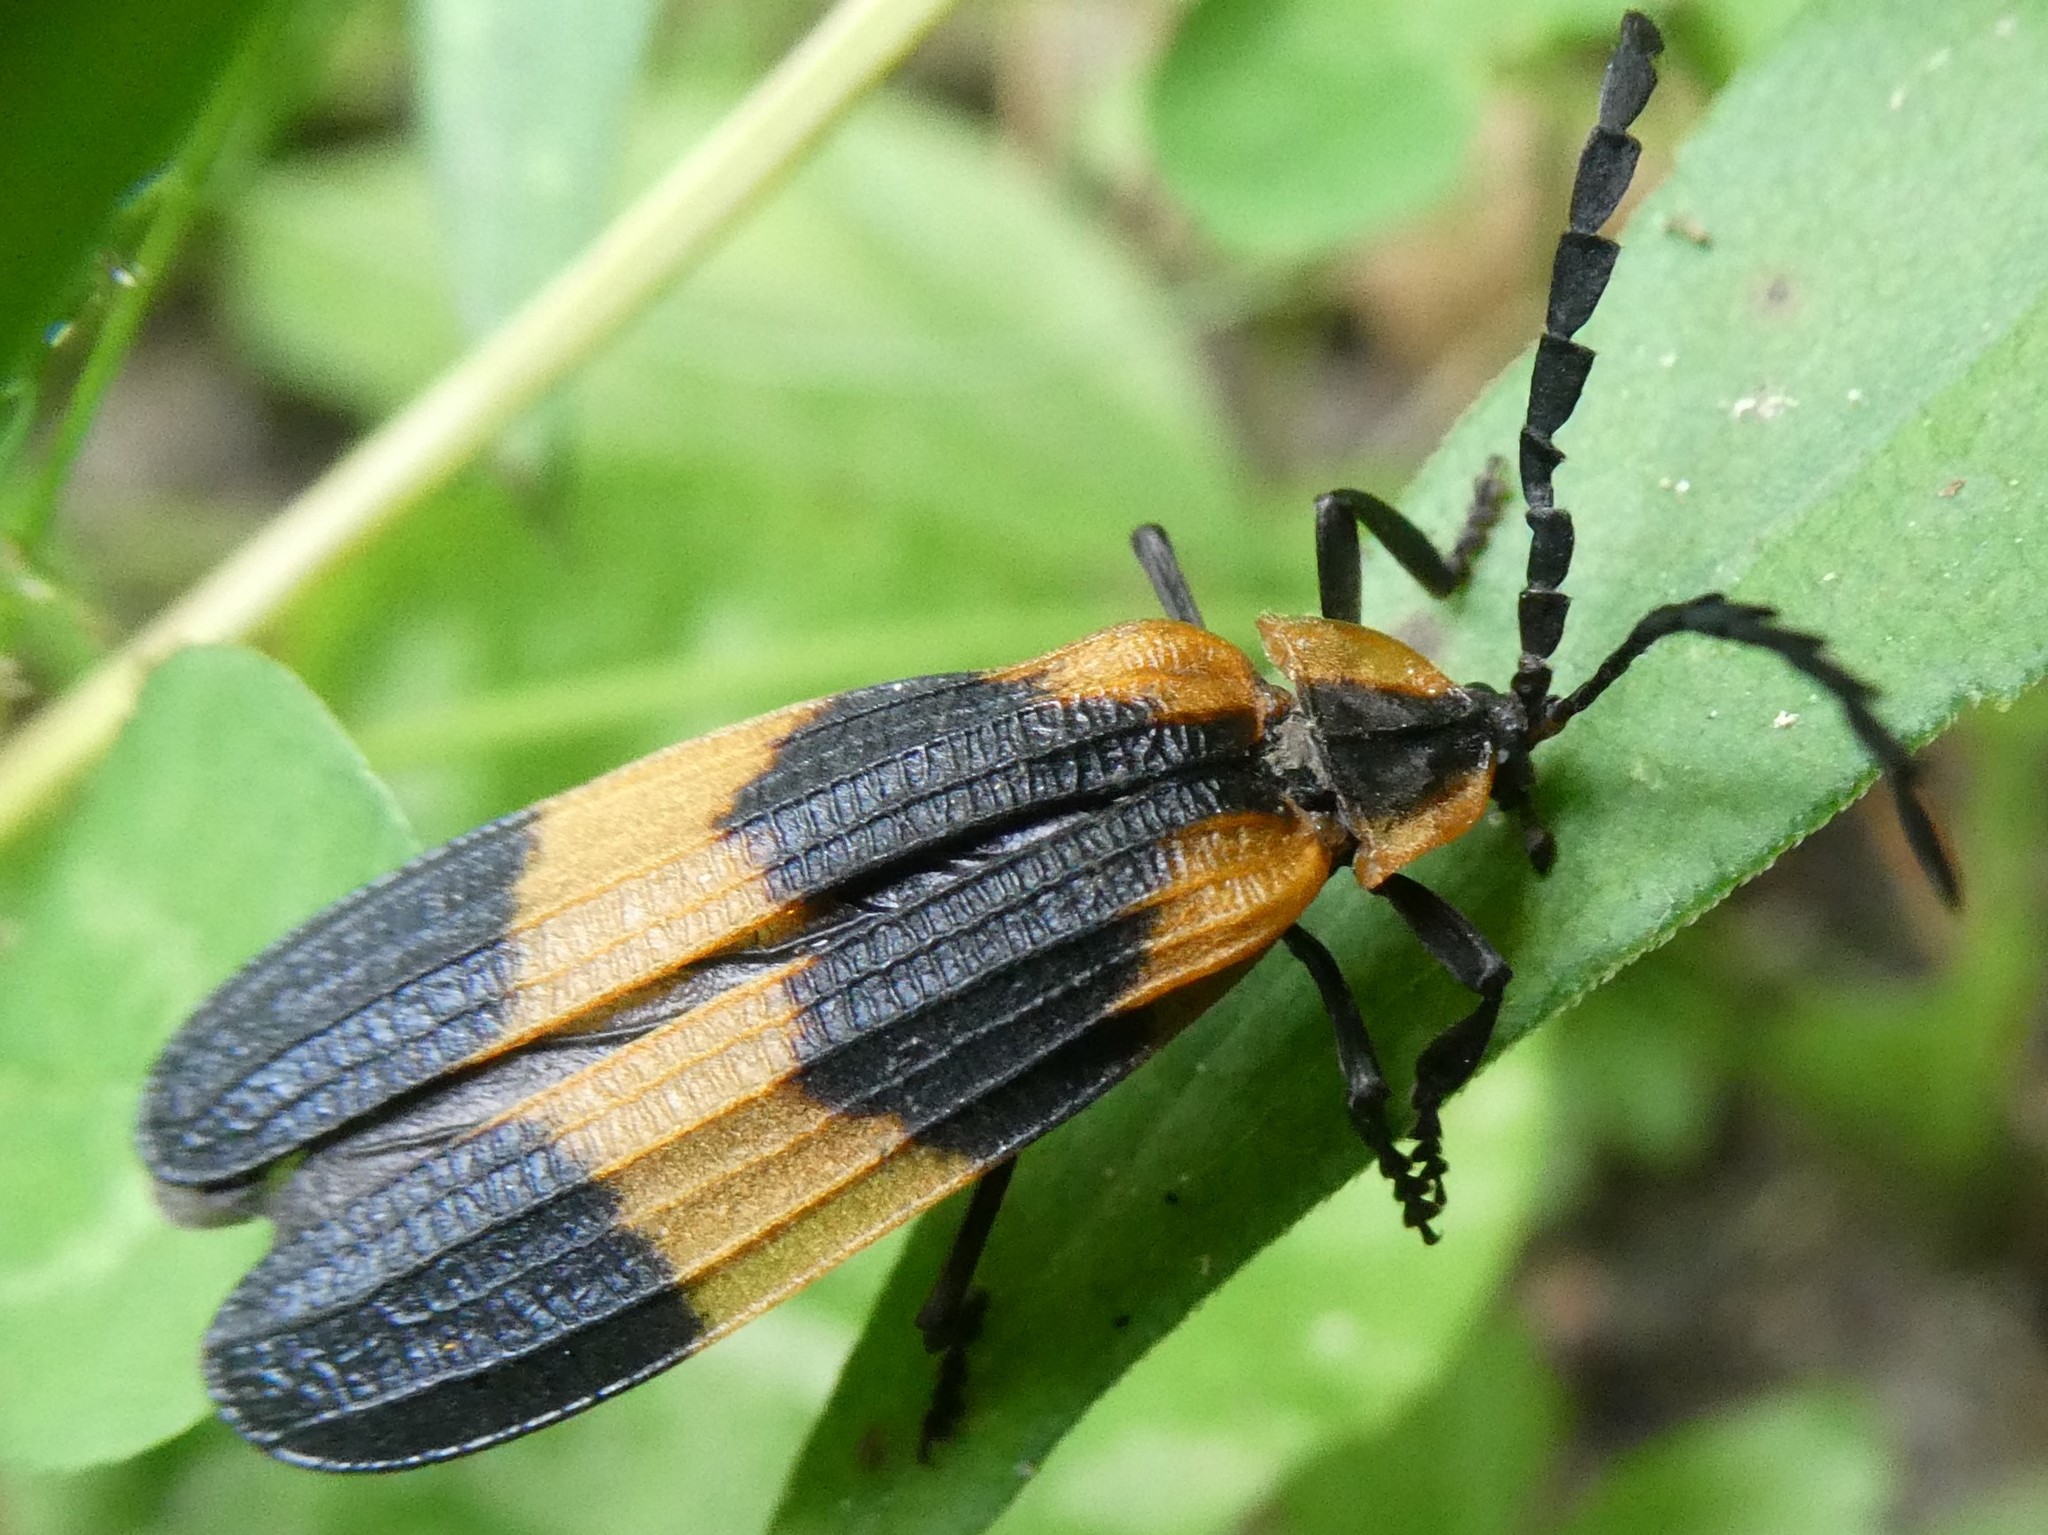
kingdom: Animalia
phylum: Arthropoda
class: Insecta
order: Coleoptera
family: Lycidae
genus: Calopteron
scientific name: Calopteron reticulatum
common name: Banded net-winged beetle
